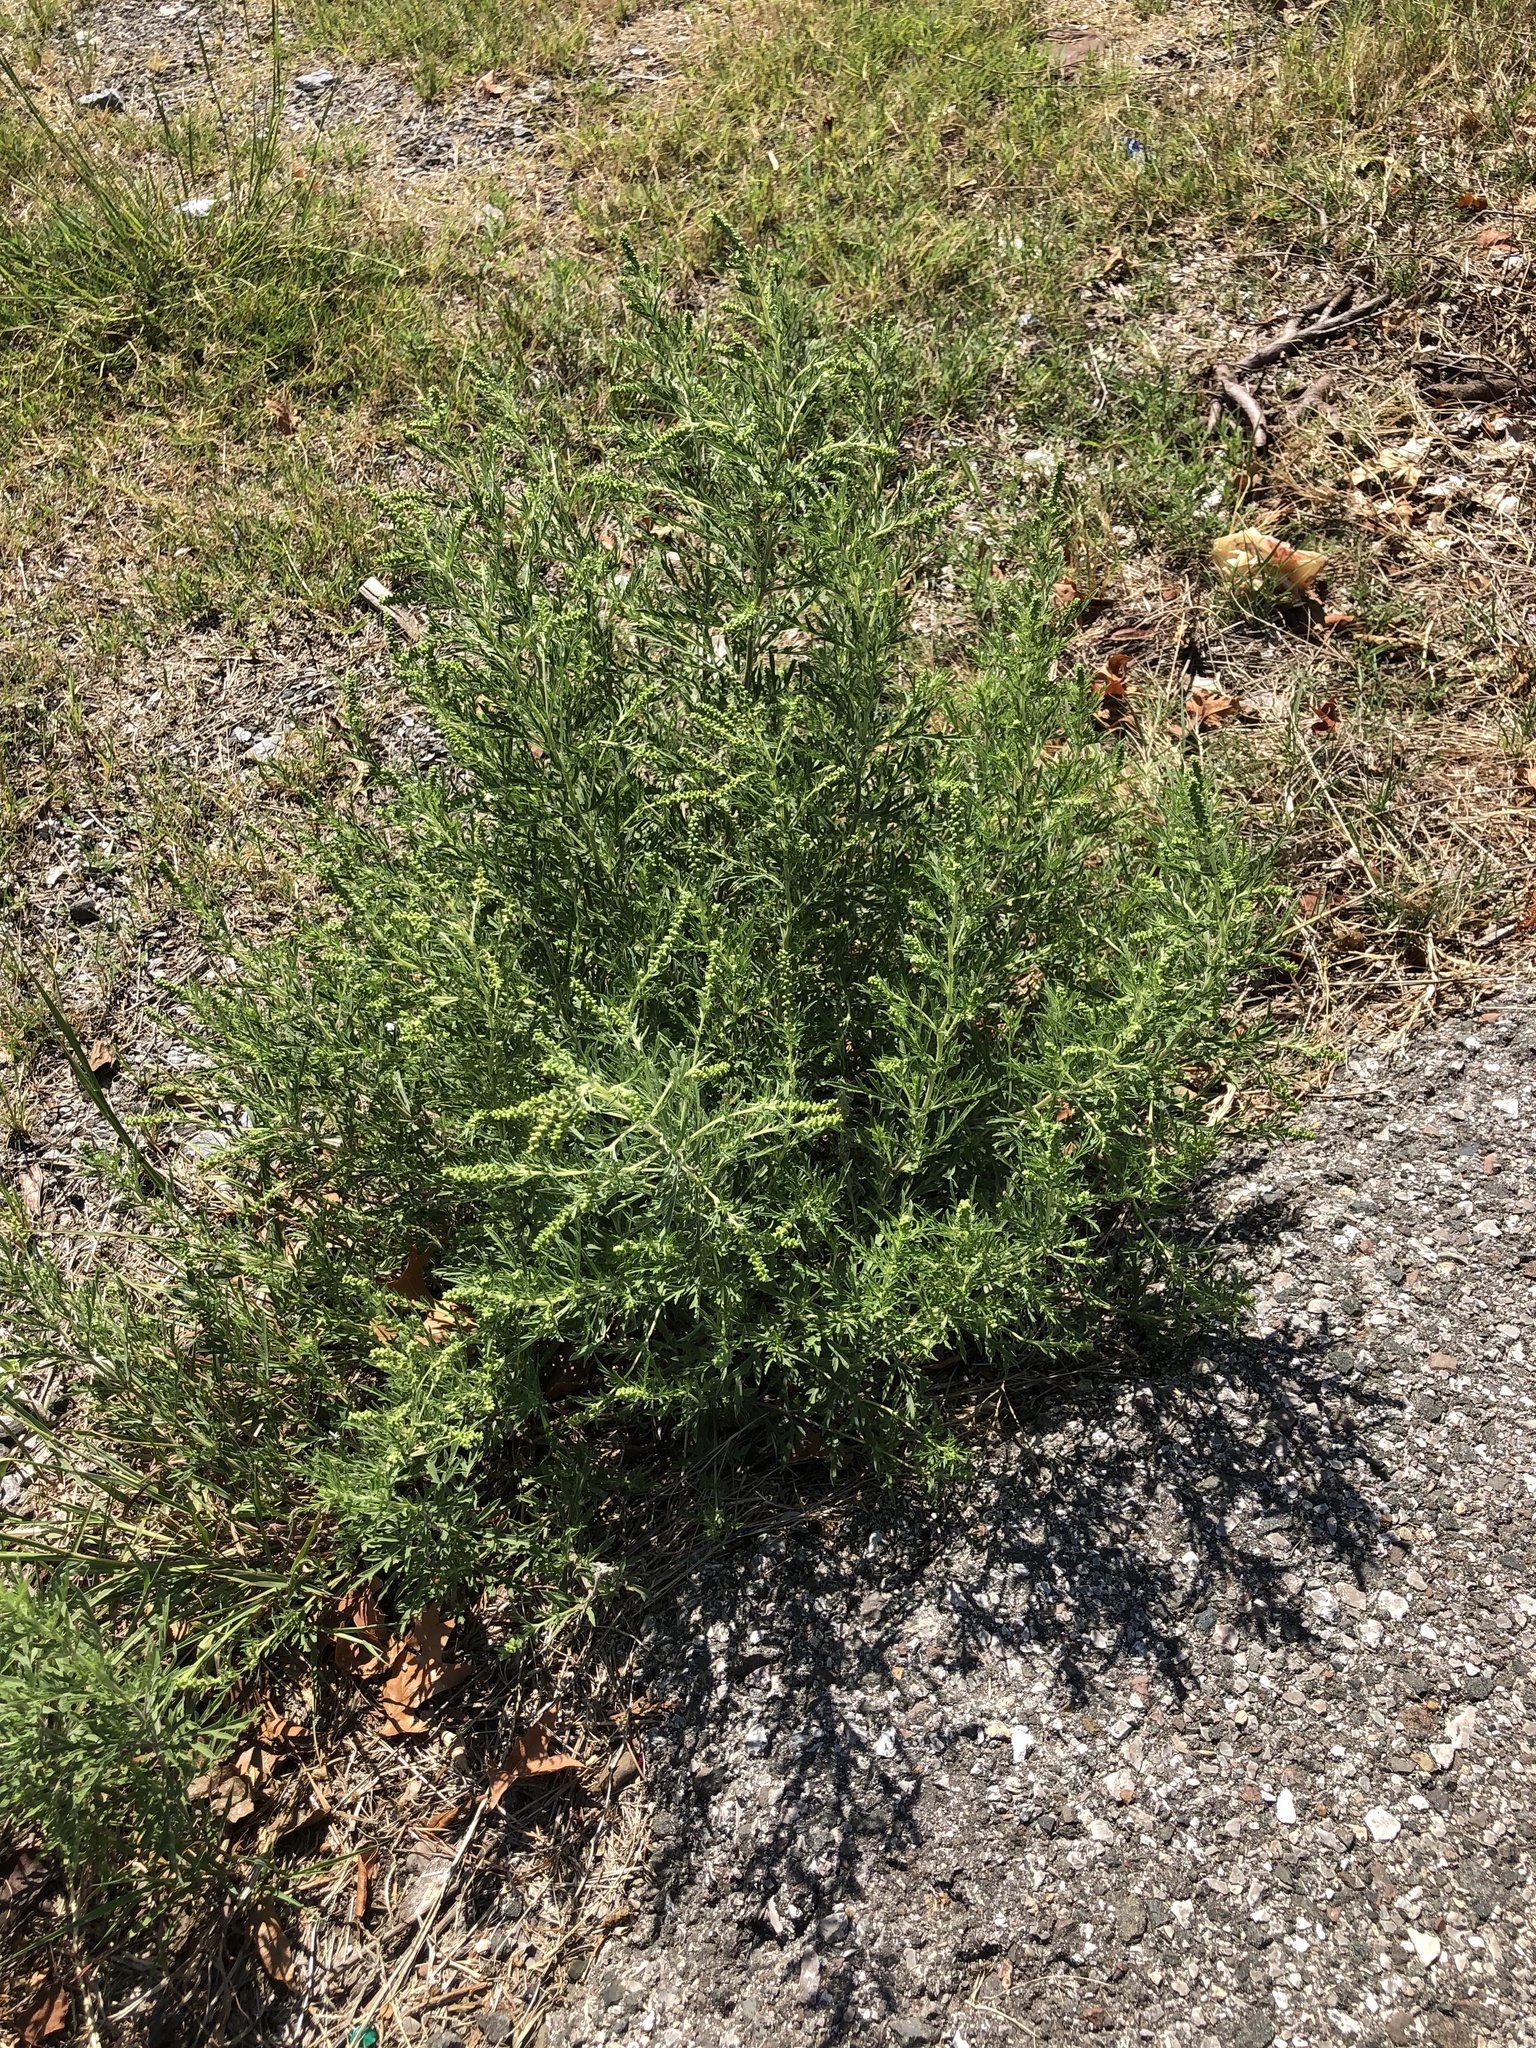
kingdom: Plantae
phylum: Tracheophyta
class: Magnoliopsida
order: Asterales
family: Asteraceae
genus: Ambrosia
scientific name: Ambrosia psilostachya
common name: Perennial ragweed
